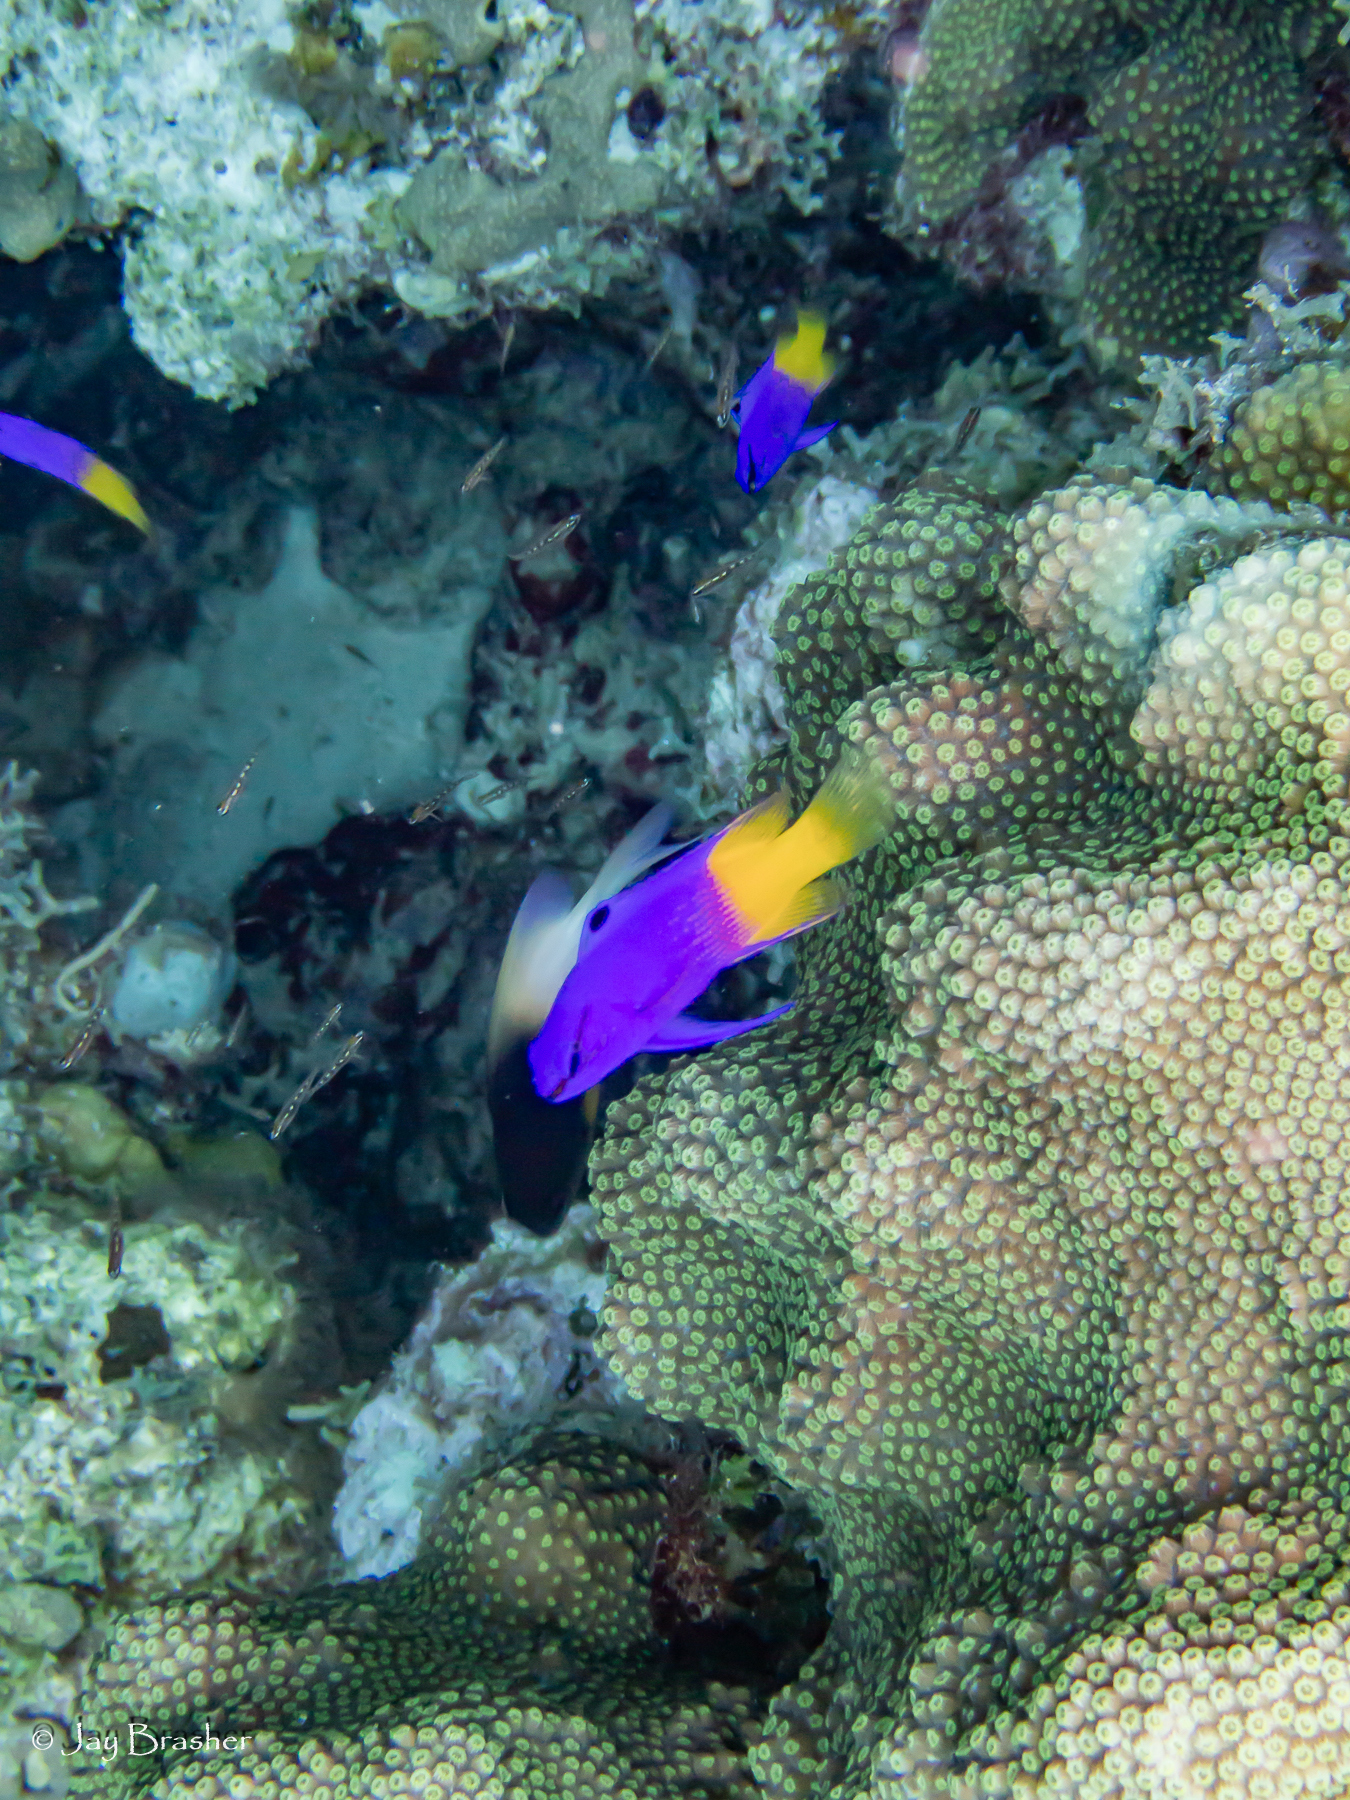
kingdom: Animalia
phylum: Chordata
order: Perciformes
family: Grammatidae
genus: Gramma
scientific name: Gramma loreto
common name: Fairy basslet
